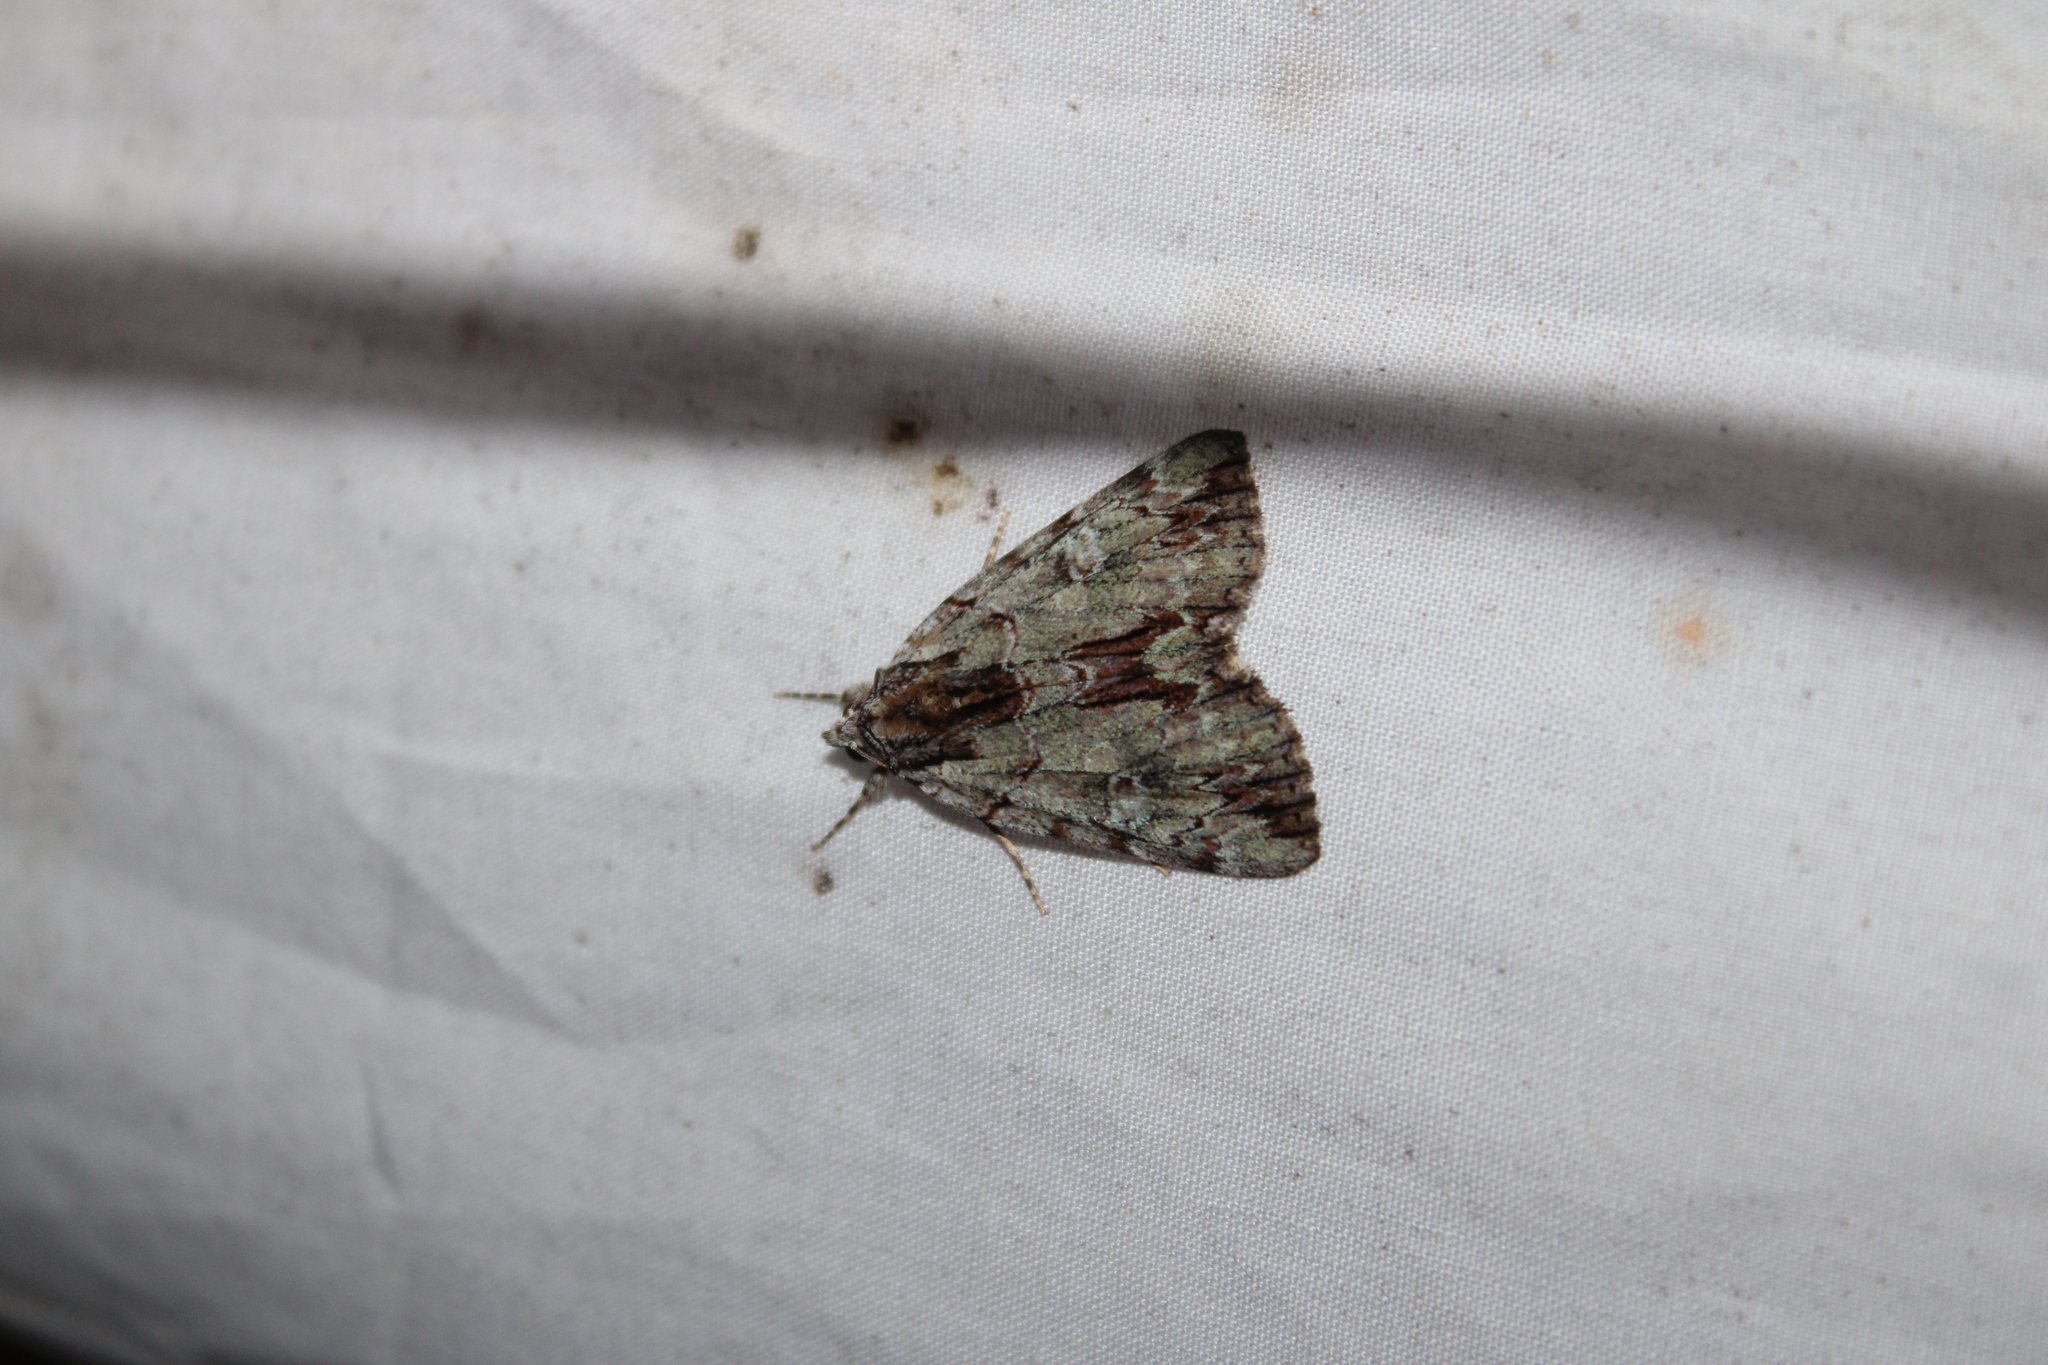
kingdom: Animalia
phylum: Arthropoda
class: Insecta
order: Lepidoptera
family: Erebidae
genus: Catocala
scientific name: Catocala praeclara
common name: Praeclara underwing
